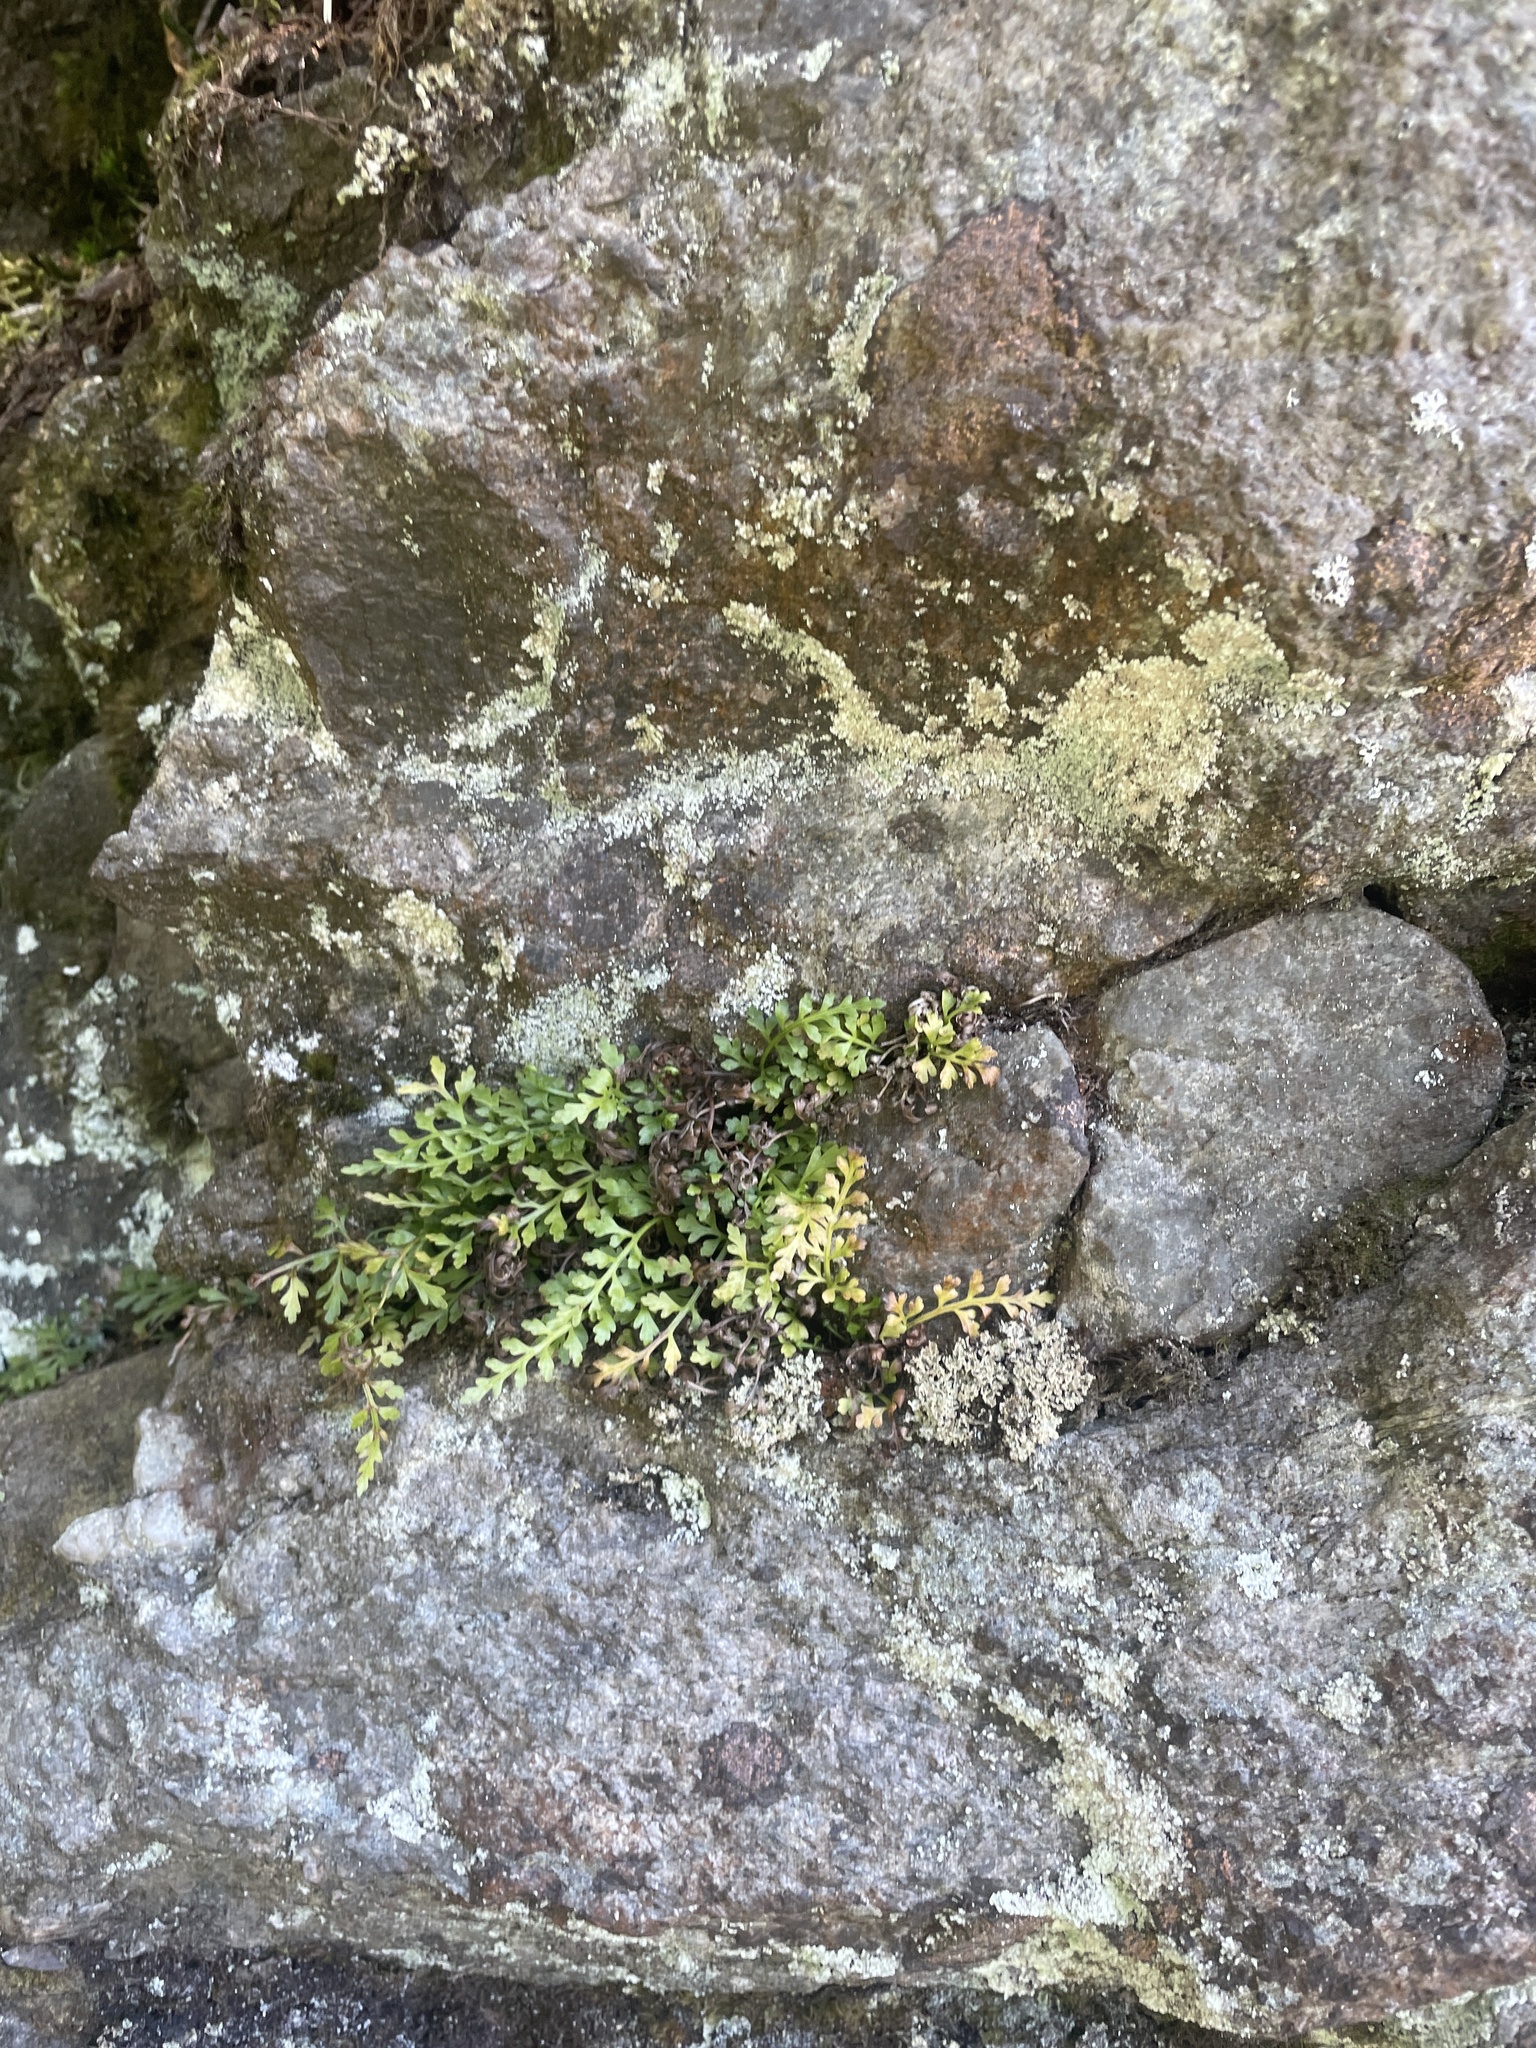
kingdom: Plantae
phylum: Tracheophyta
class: Polypodiopsida
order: Polypodiales
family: Aspleniaceae
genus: Asplenium
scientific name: Asplenium montanum
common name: Mountain spleenwort
